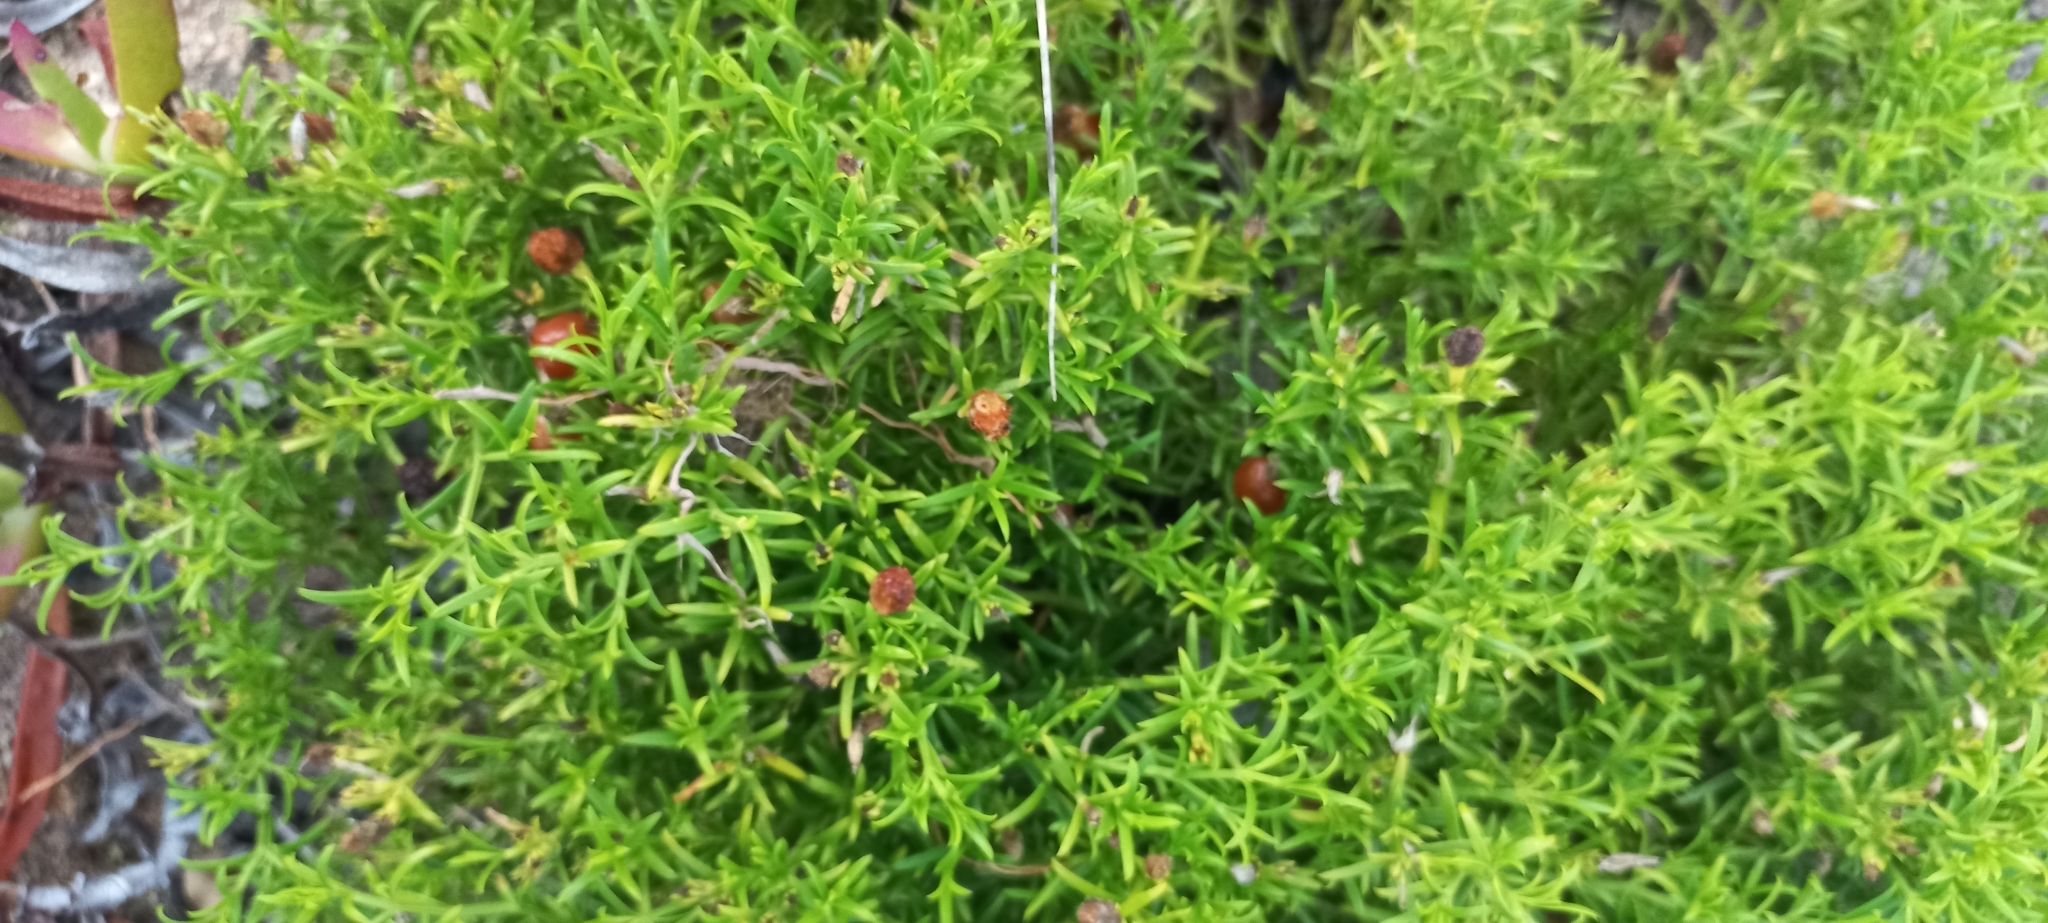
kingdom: Plantae
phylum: Tracheophyta
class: Magnoliopsida
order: Gentianales
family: Gentianaceae
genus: Chironia
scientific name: Chironia baccifera
